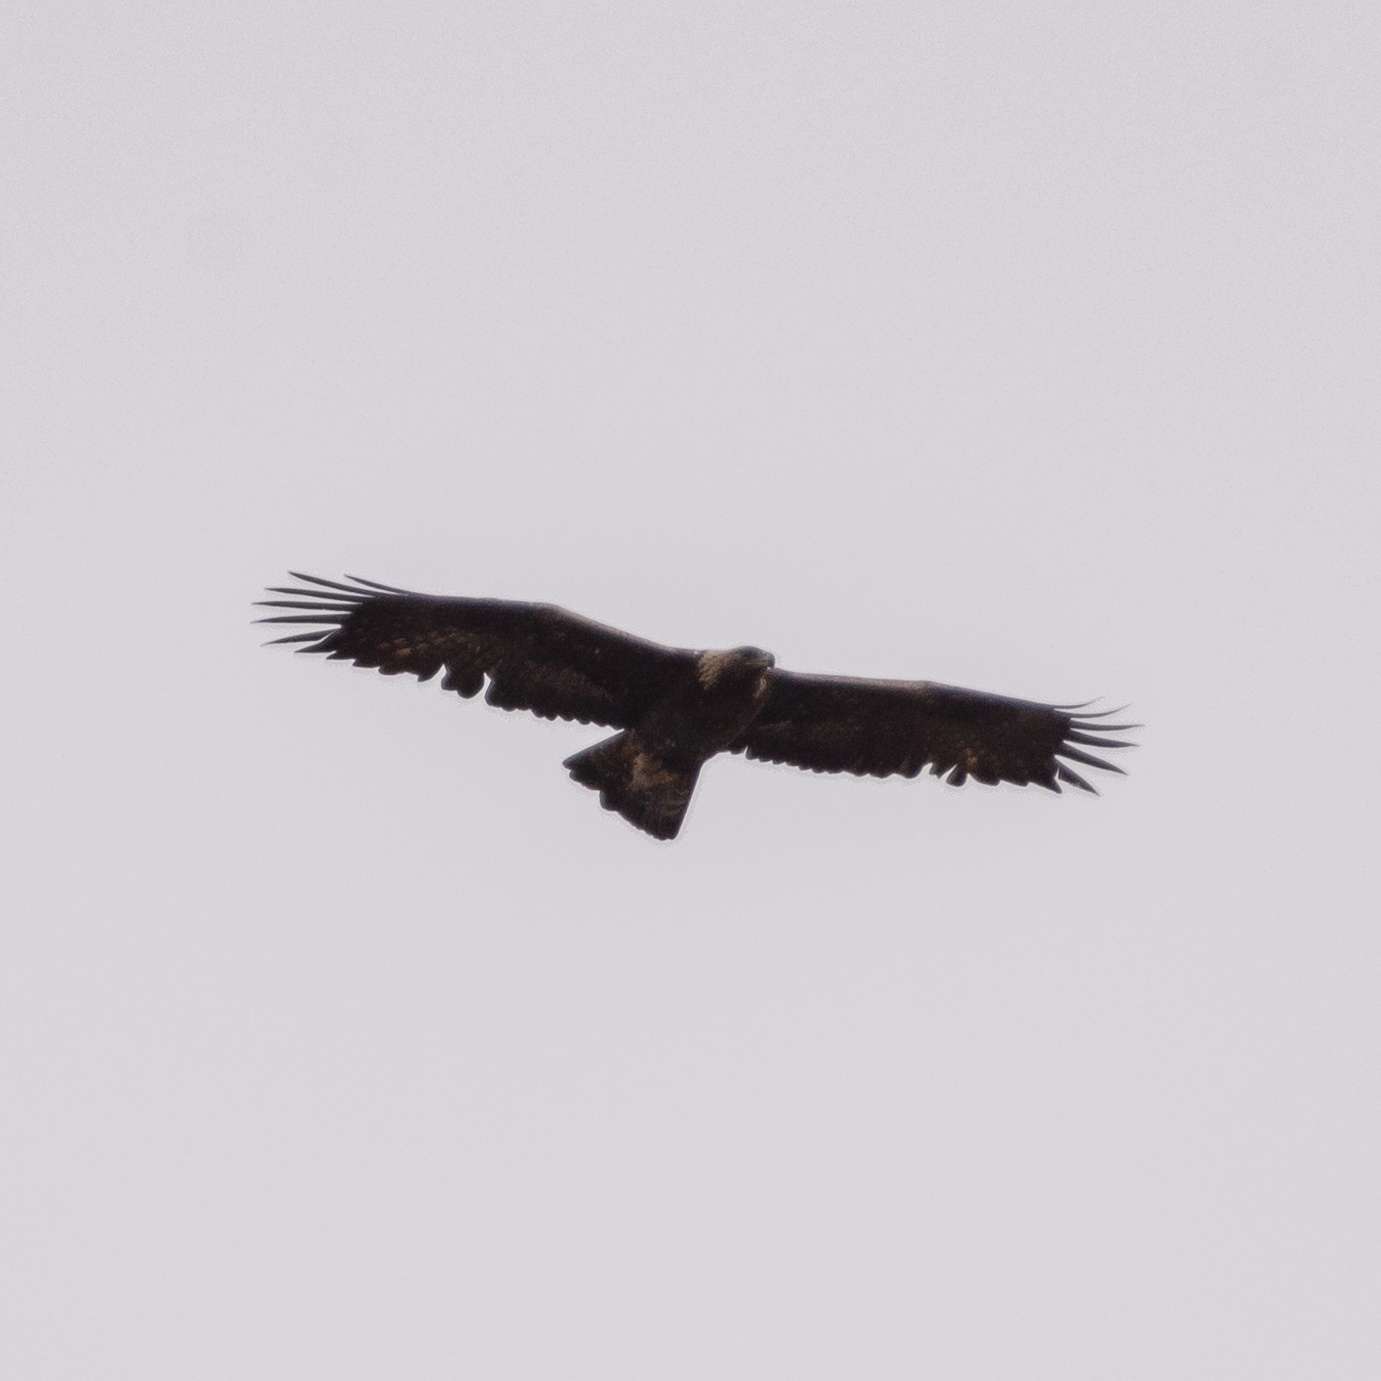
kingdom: Animalia
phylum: Chordata
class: Aves
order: Accipitriformes
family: Accipitridae
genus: Aquila
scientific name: Aquila chrysaetos
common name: Golden eagle
